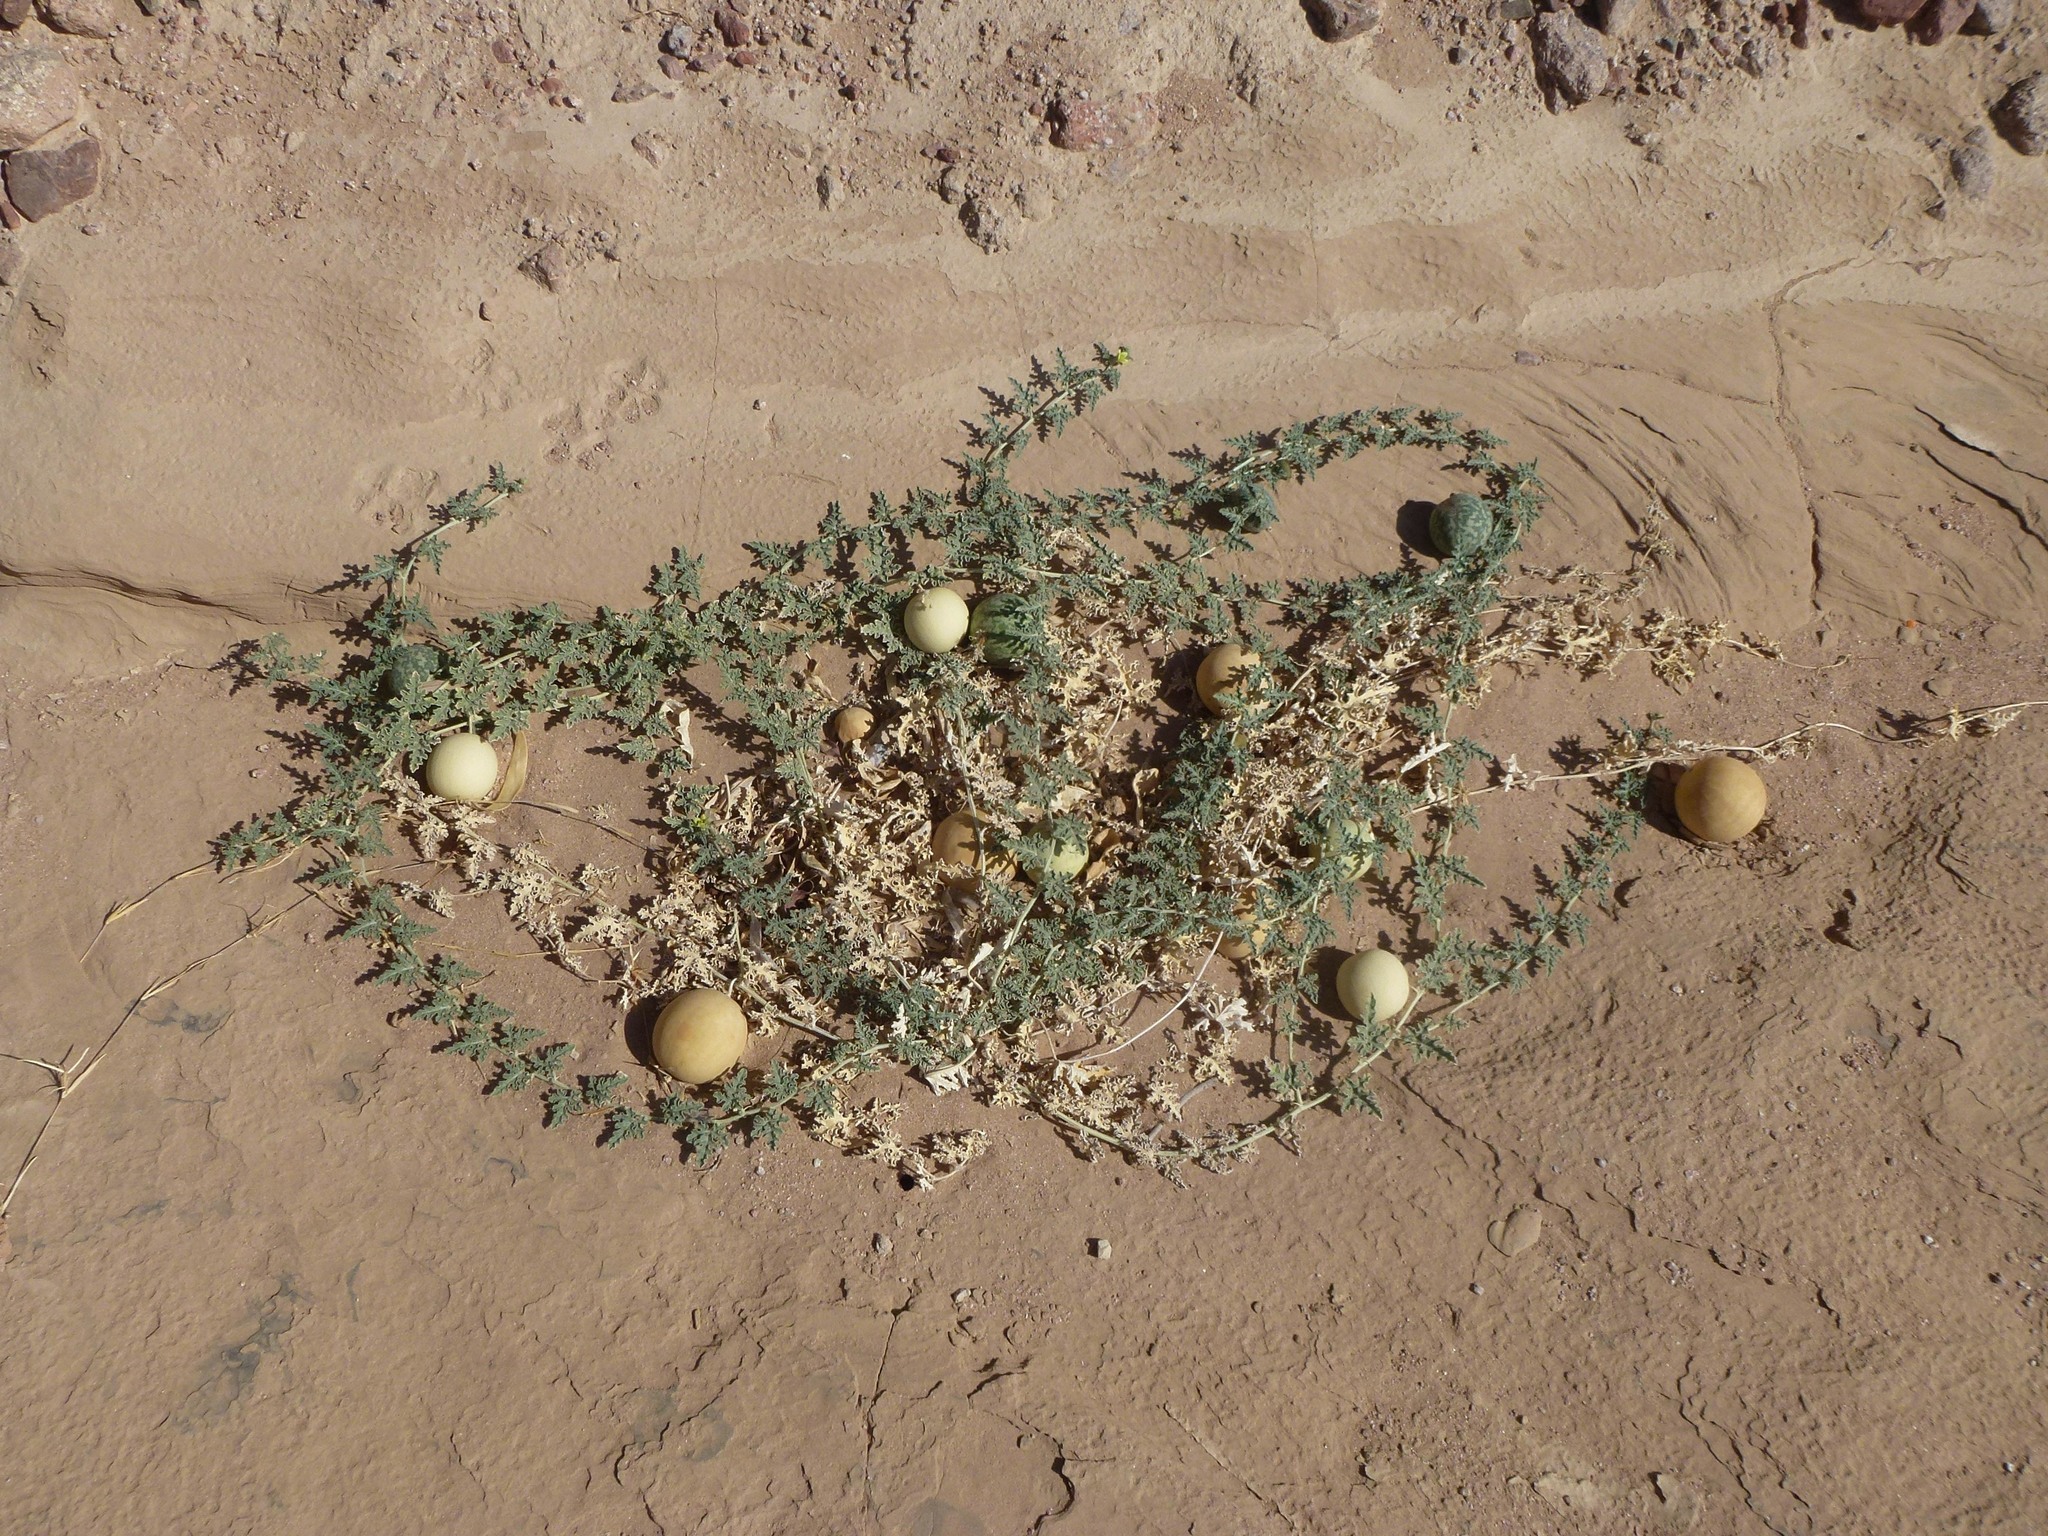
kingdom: Plantae
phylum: Tracheophyta
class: Magnoliopsida
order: Cucurbitales
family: Cucurbitaceae
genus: Citrullus
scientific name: Citrullus colocynthis
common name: Colocynth
